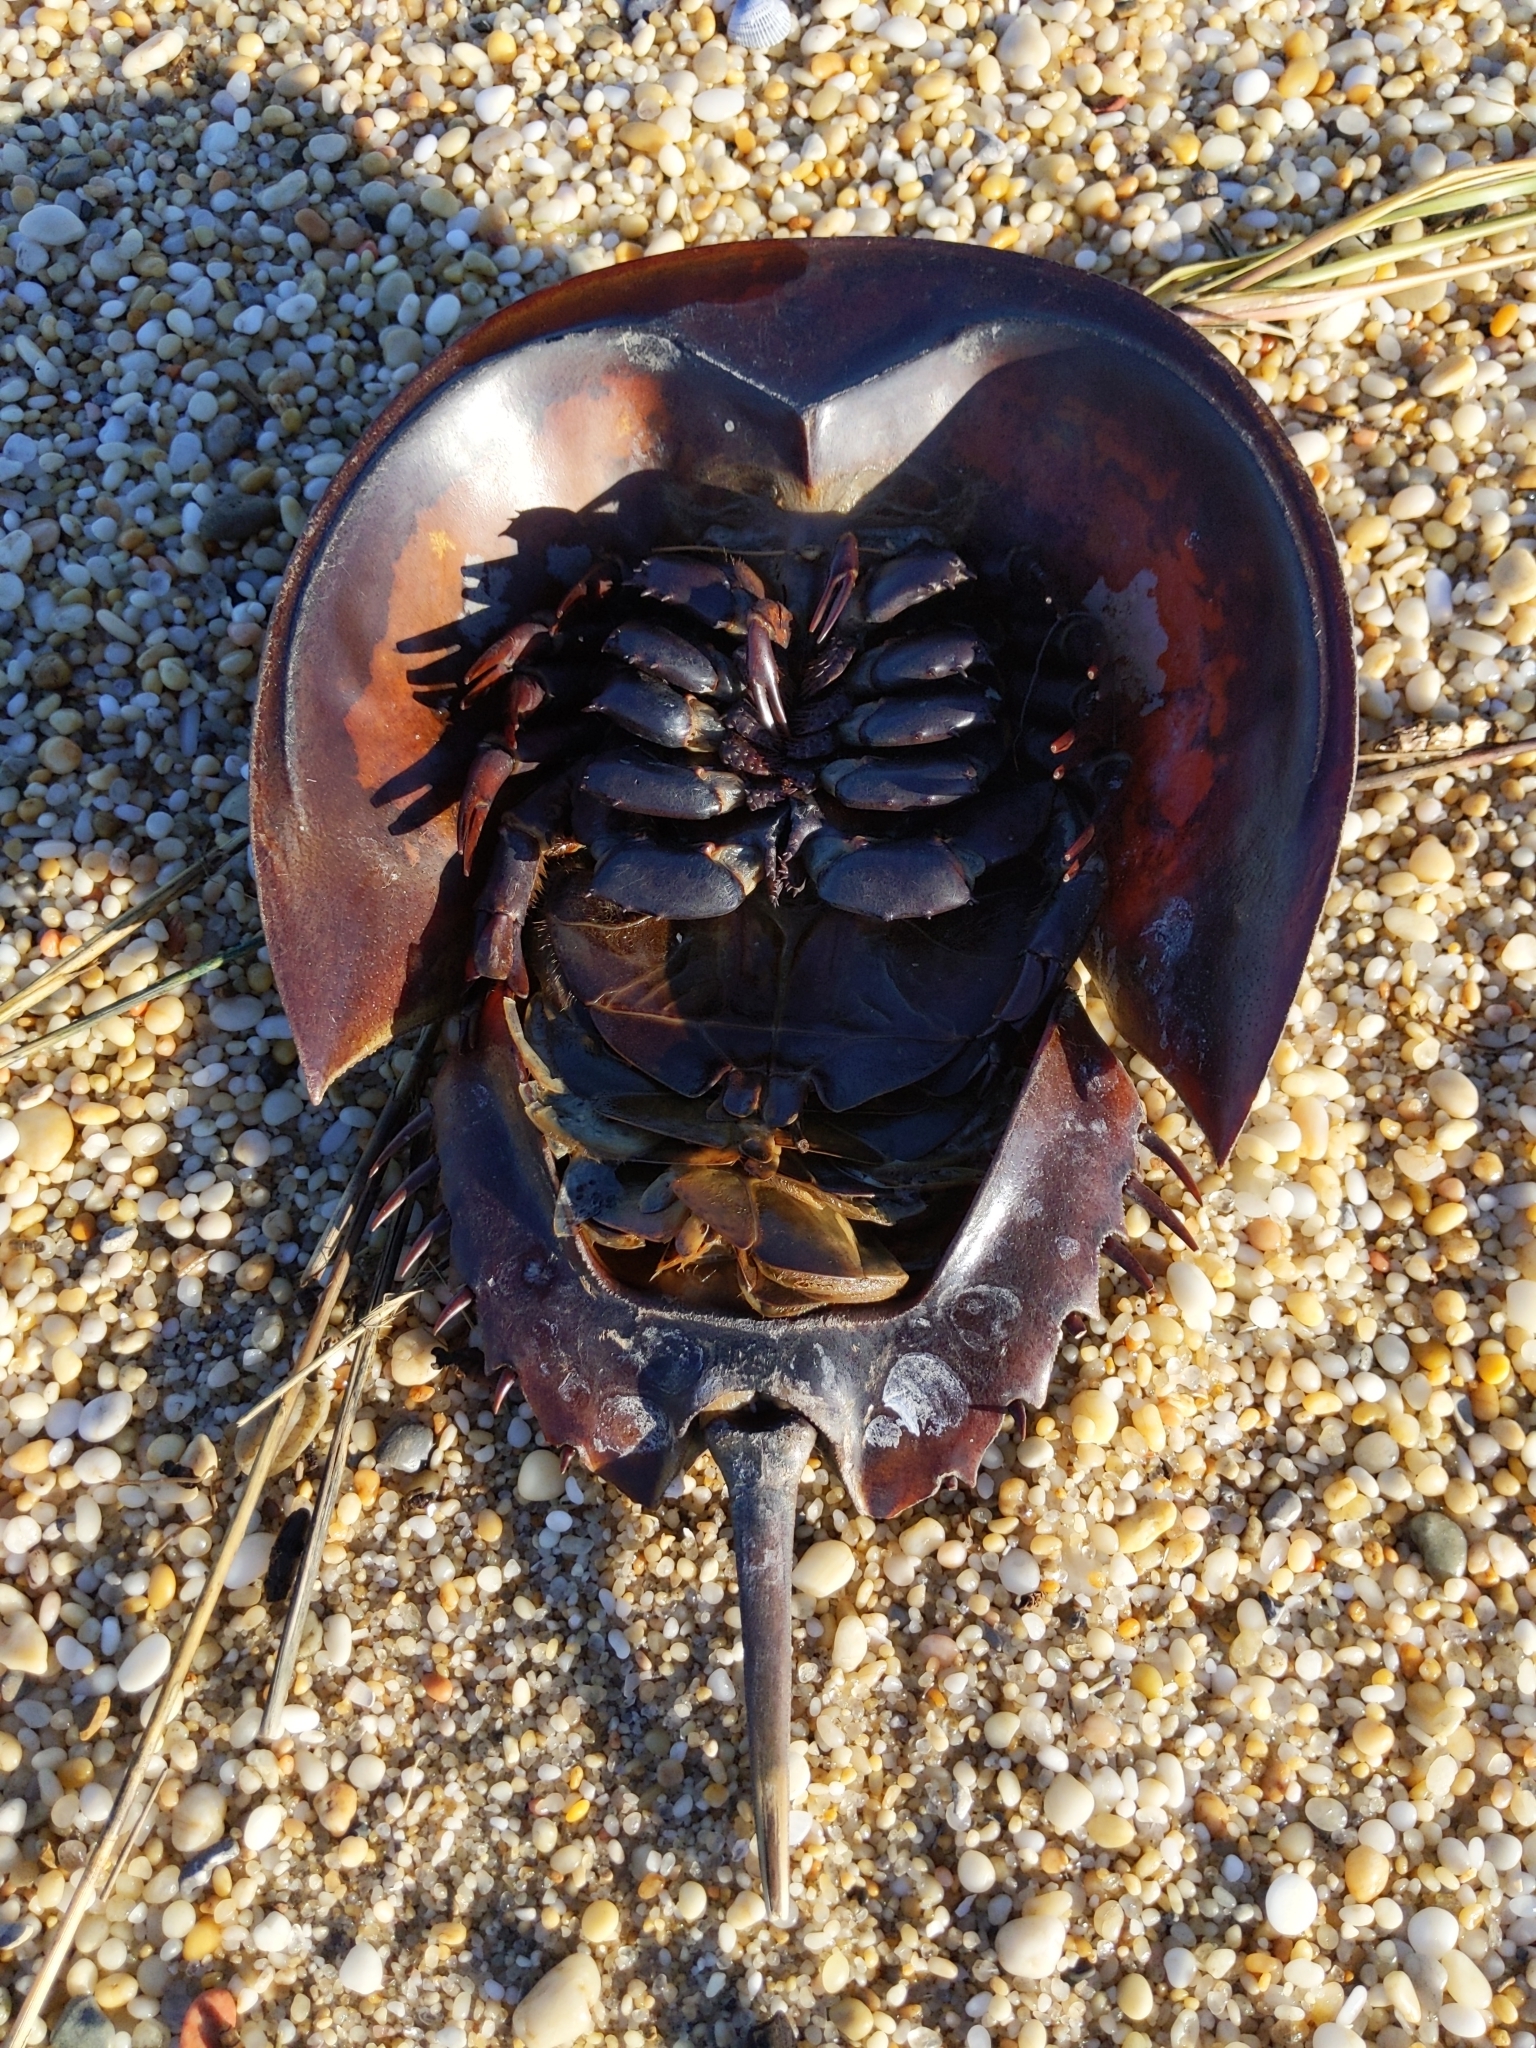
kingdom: Animalia
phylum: Arthropoda
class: Merostomata
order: Xiphosurida
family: Limulidae
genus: Limulus
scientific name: Limulus polyphemus
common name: Horseshoe crab
